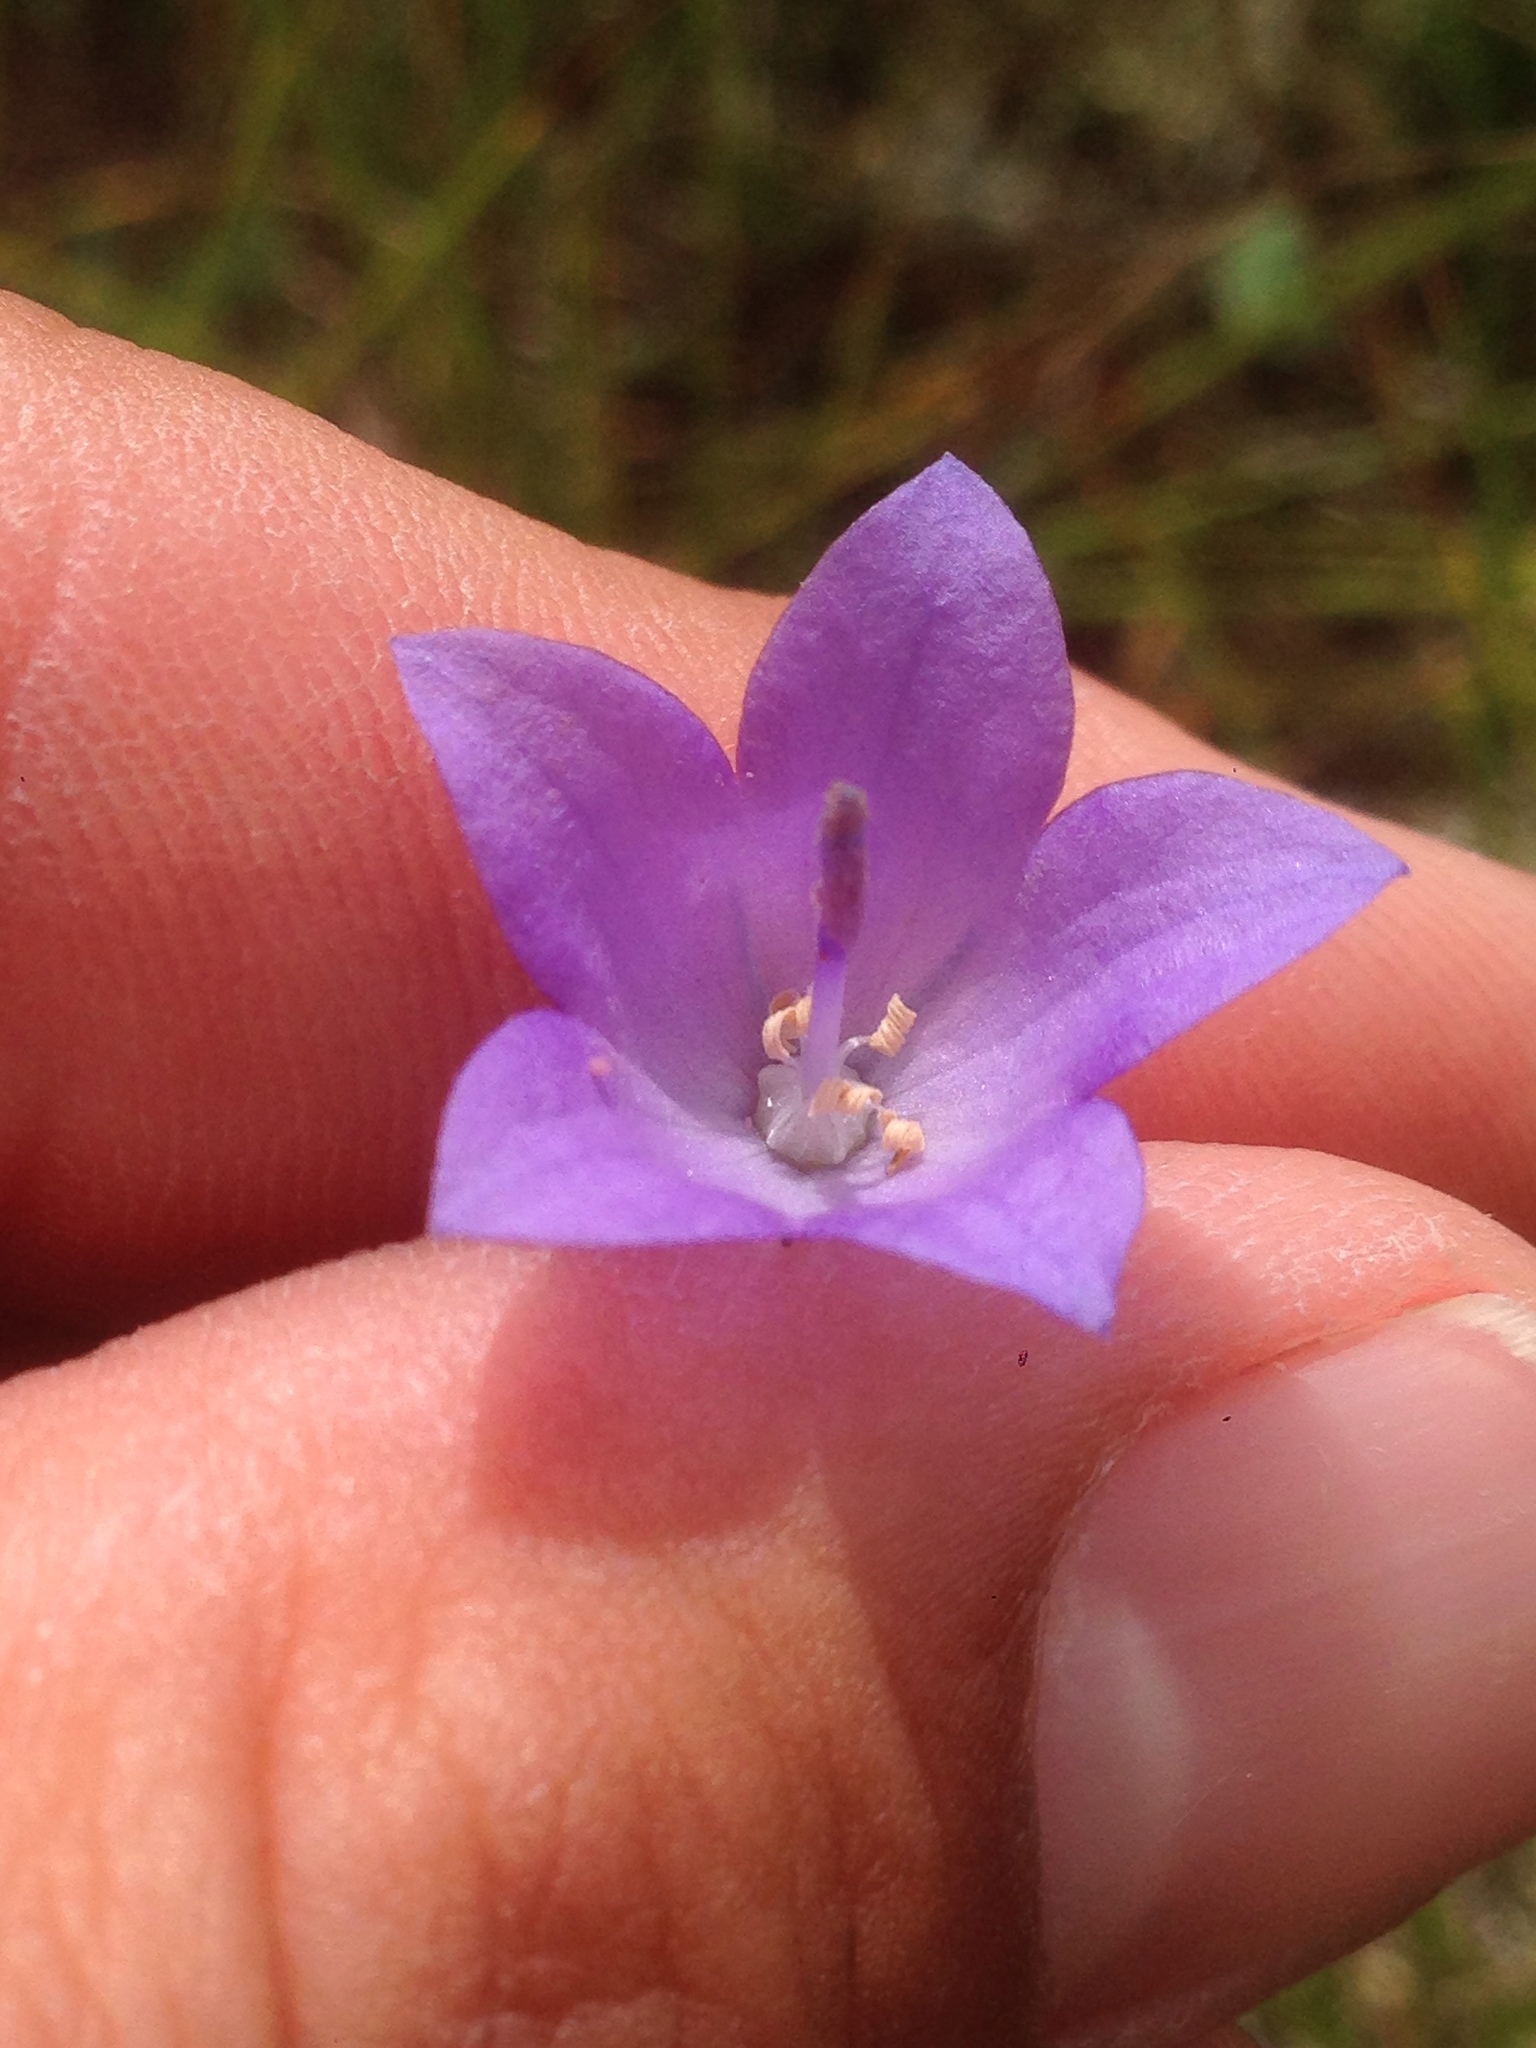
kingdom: Plantae
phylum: Tracheophyta
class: Magnoliopsida
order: Asterales
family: Campanulaceae
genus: Campanula
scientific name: Campanula intercedens
